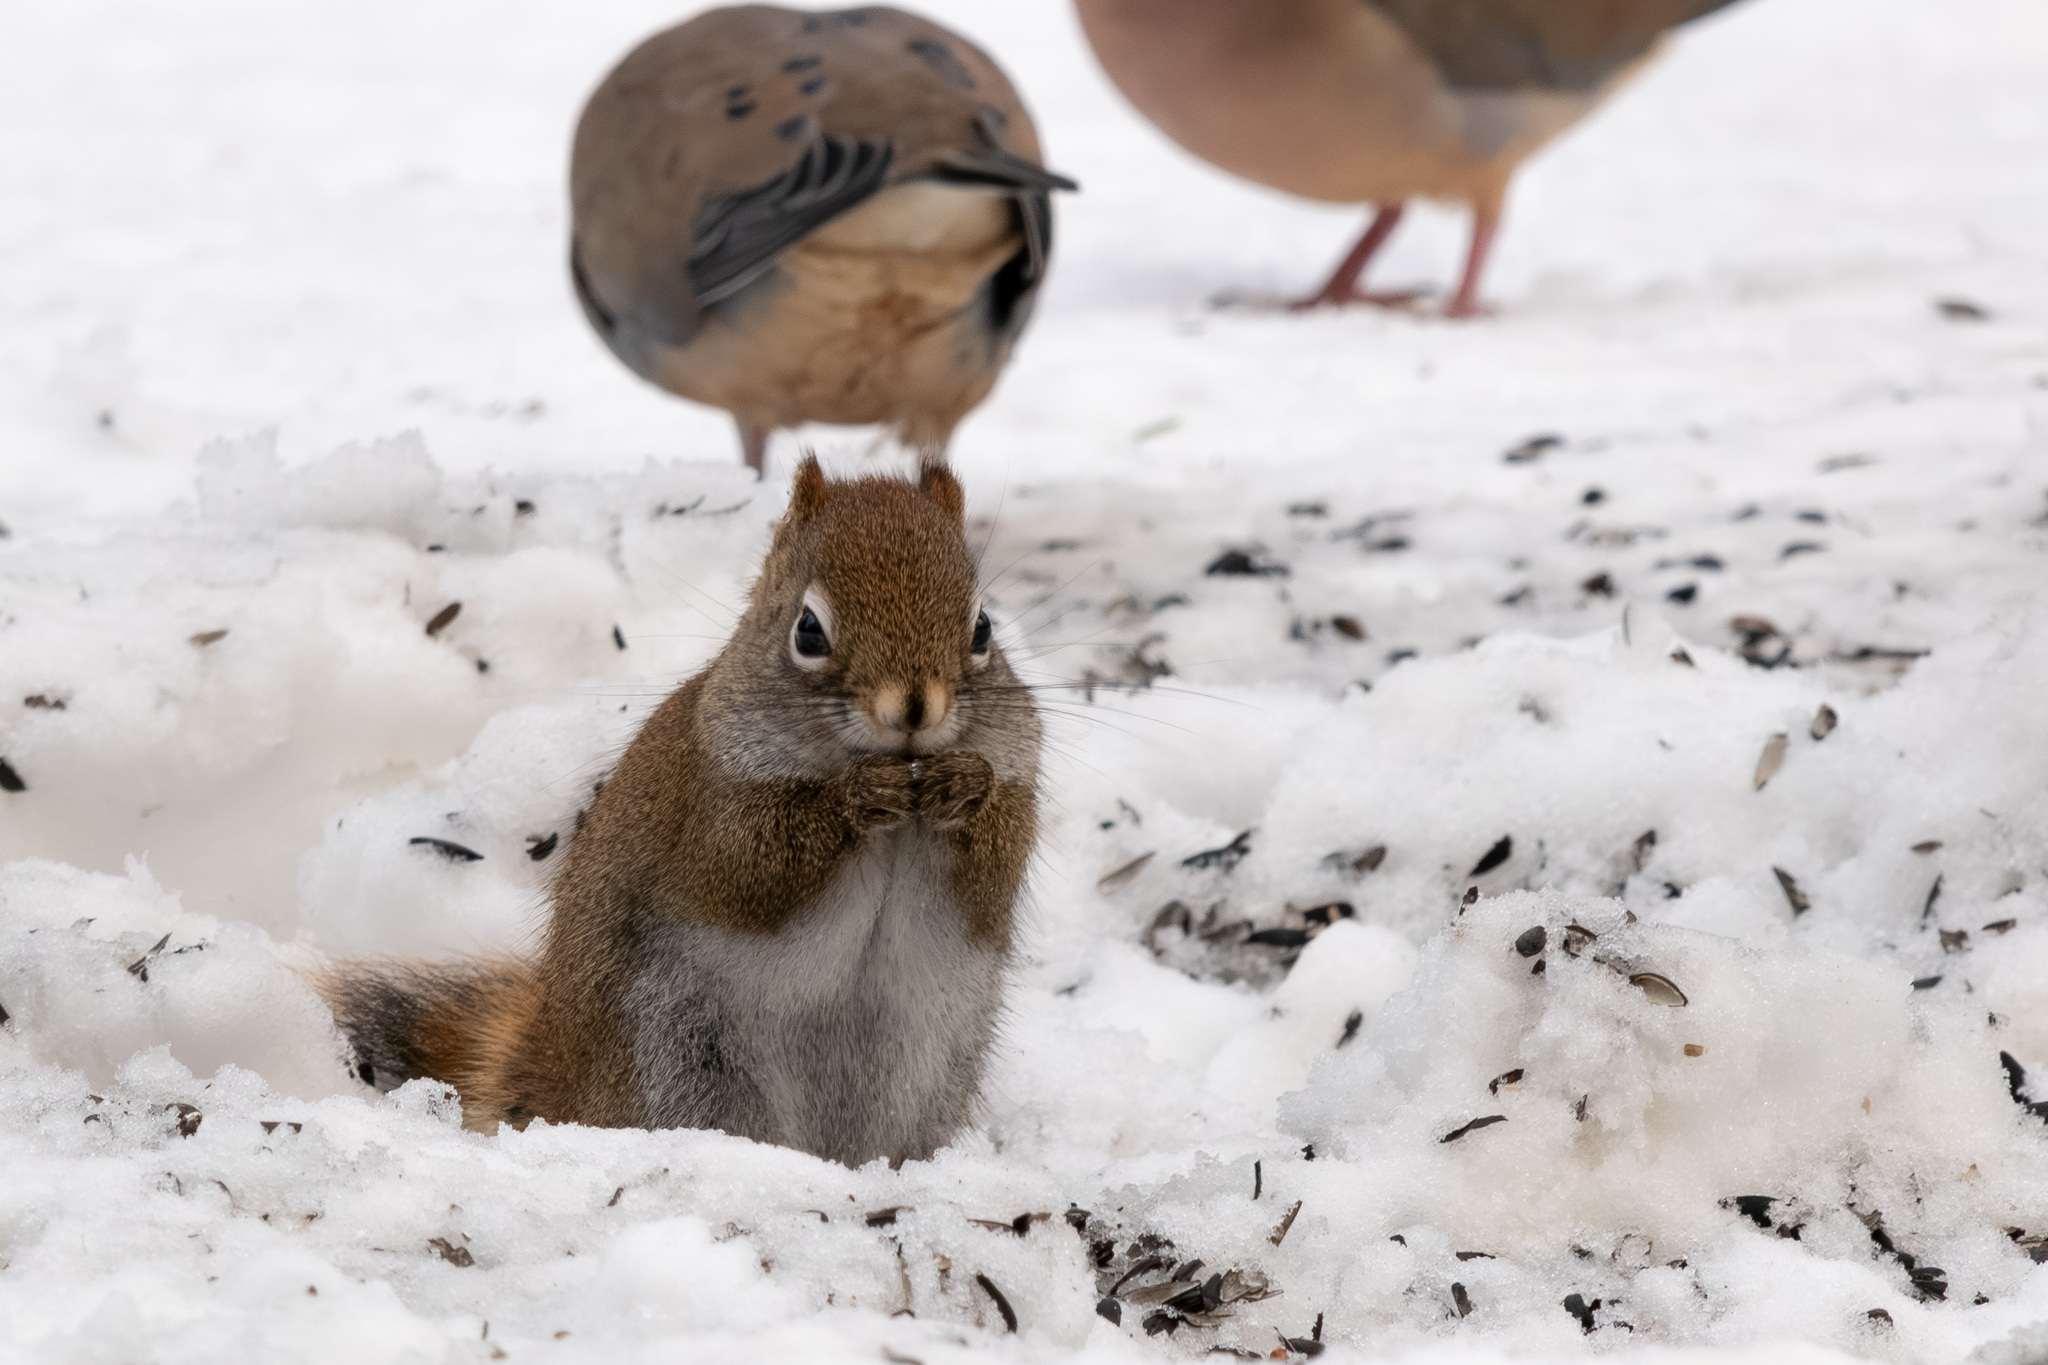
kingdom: Animalia
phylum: Chordata
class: Mammalia
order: Rodentia
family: Sciuridae
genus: Tamiasciurus
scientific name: Tamiasciurus hudsonicus
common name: Red squirrel
